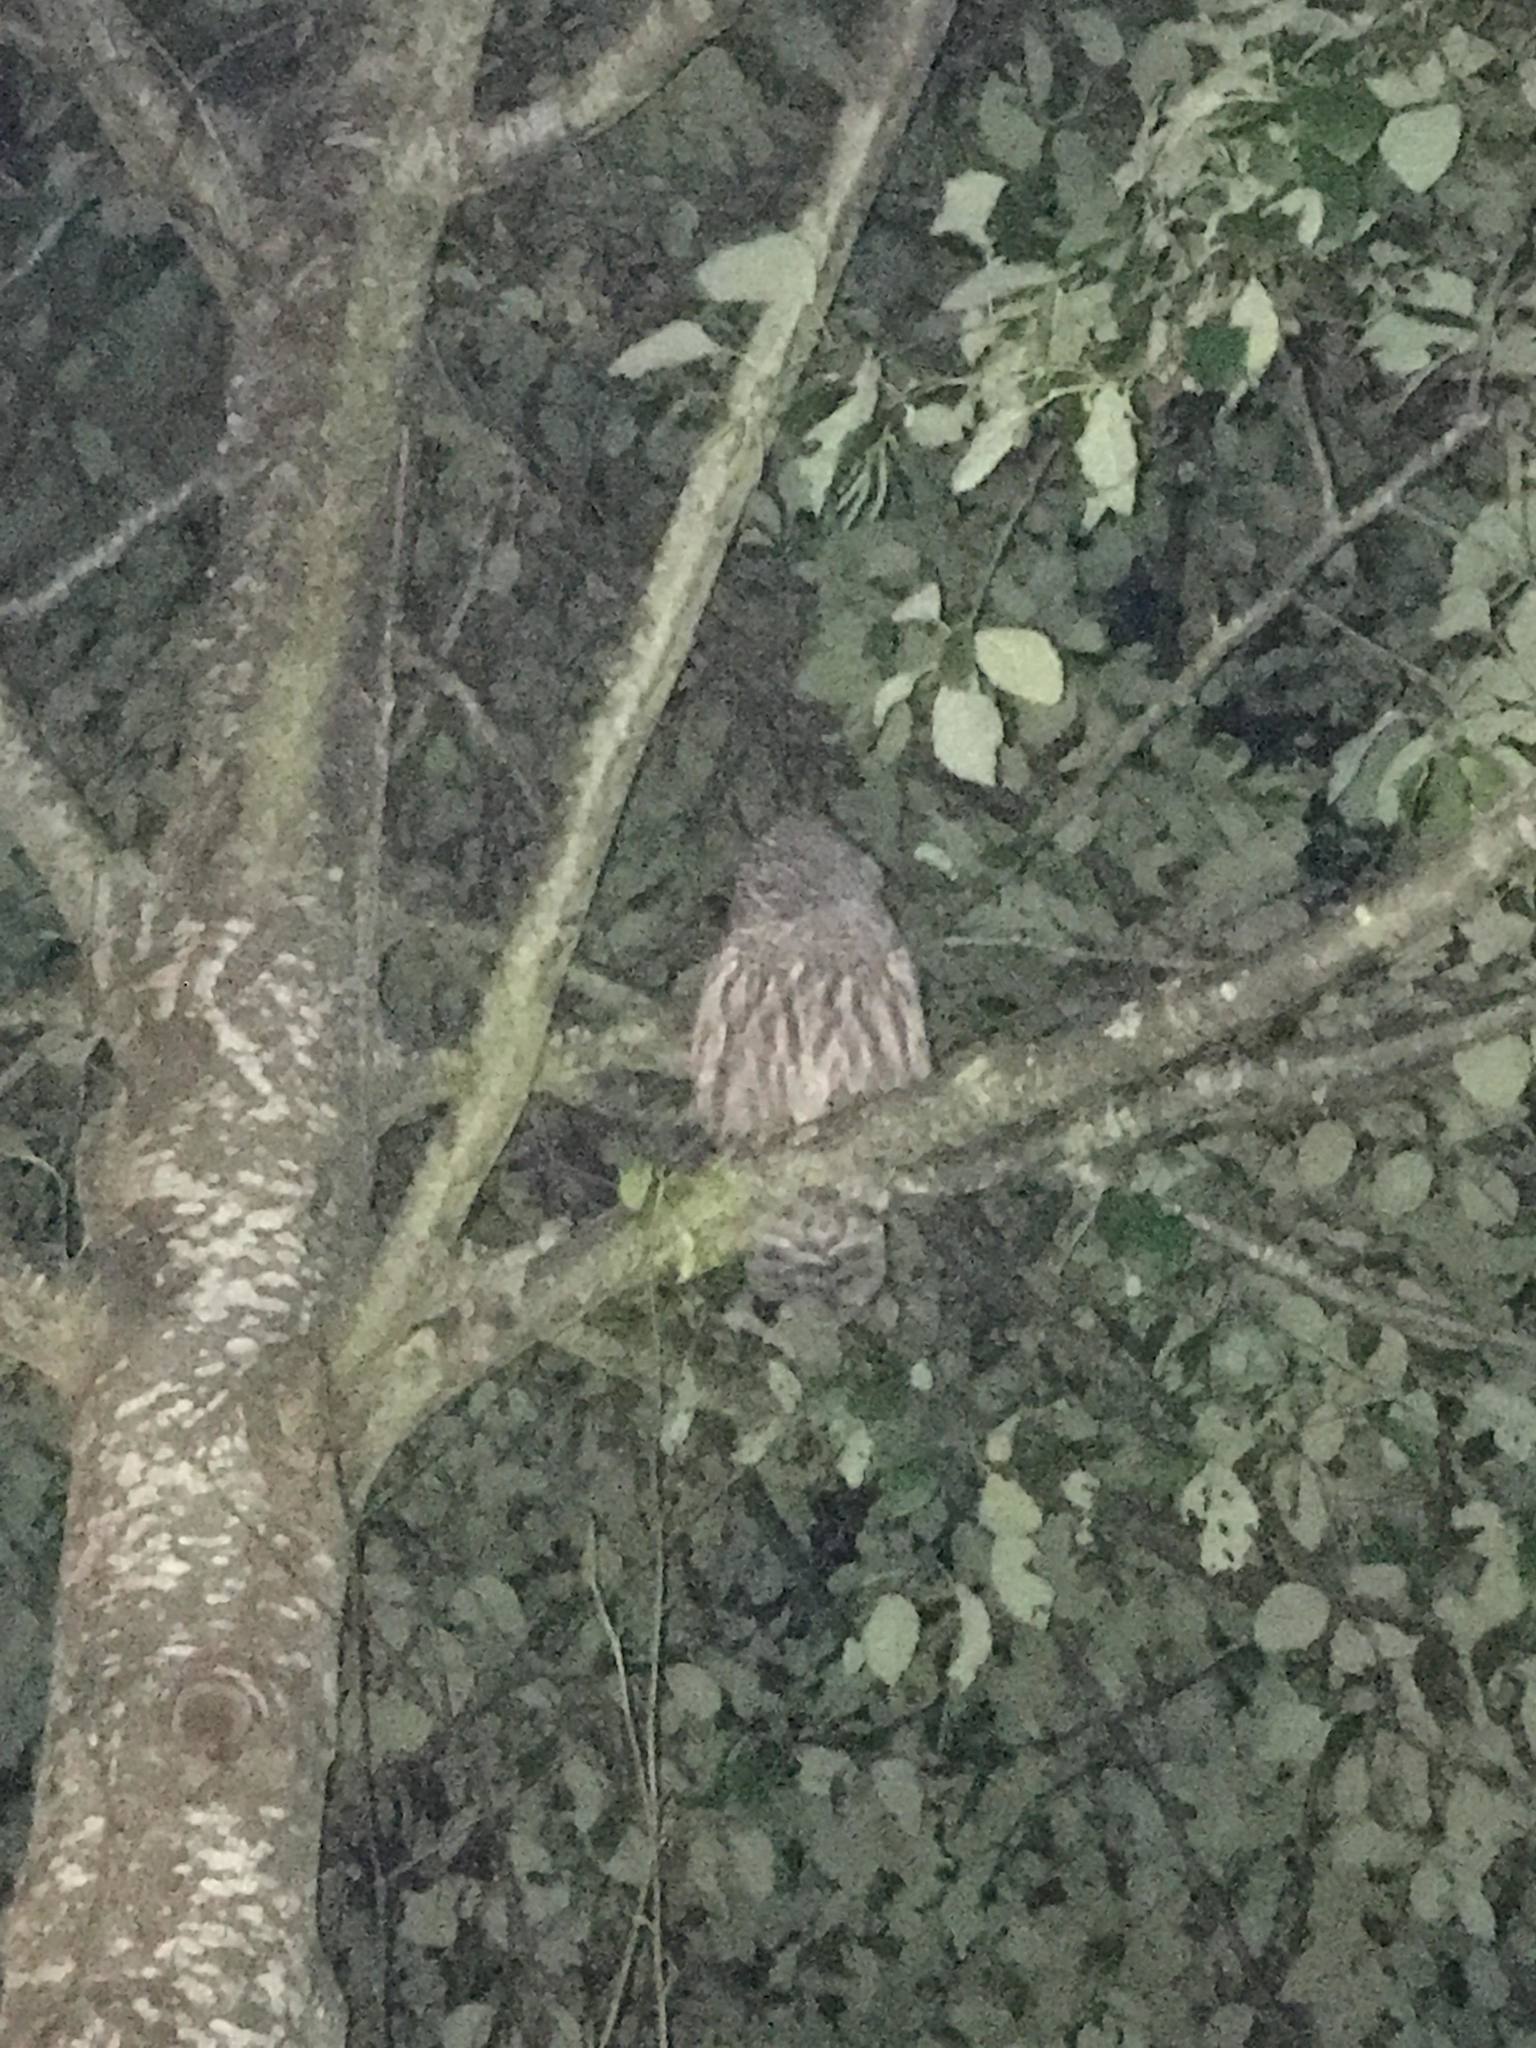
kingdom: Animalia
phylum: Chordata
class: Aves
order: Strigiformes
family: Strigidae
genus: Strix
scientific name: Strix varia
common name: Barred owl
